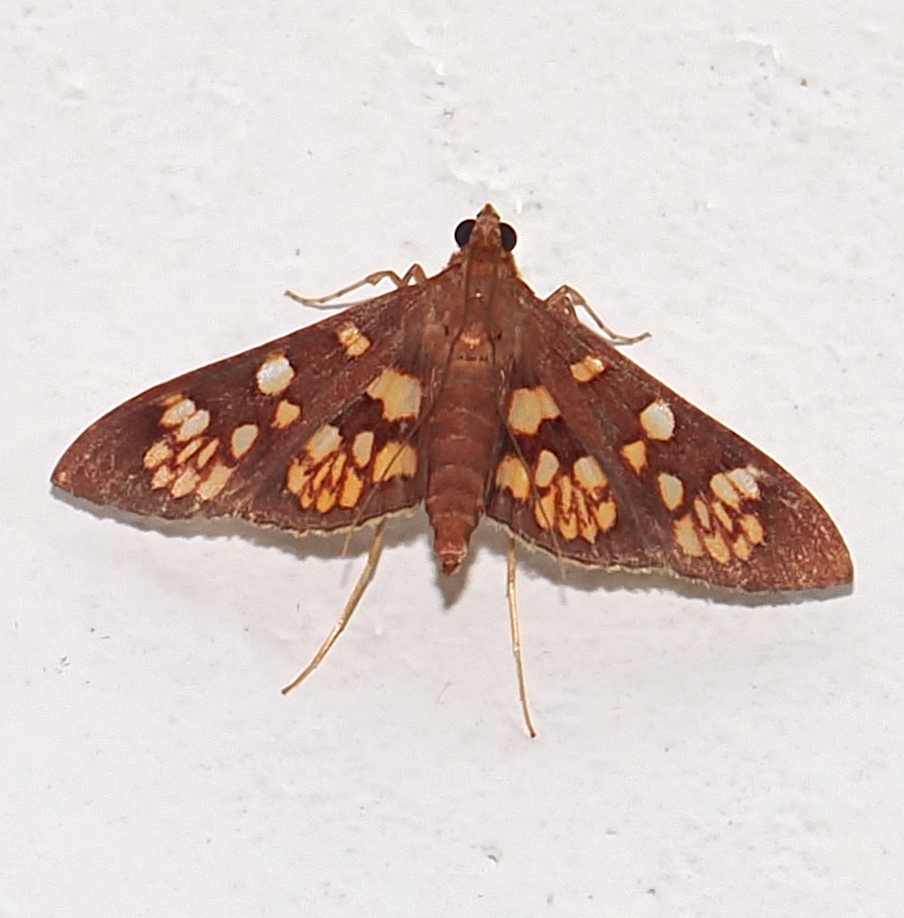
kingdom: Animalia
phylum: Arthropoda
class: Insecta
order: Lepidoptera
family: Crambidae
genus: Trithyris
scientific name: Trithyris Prenesta fenestrinalis
